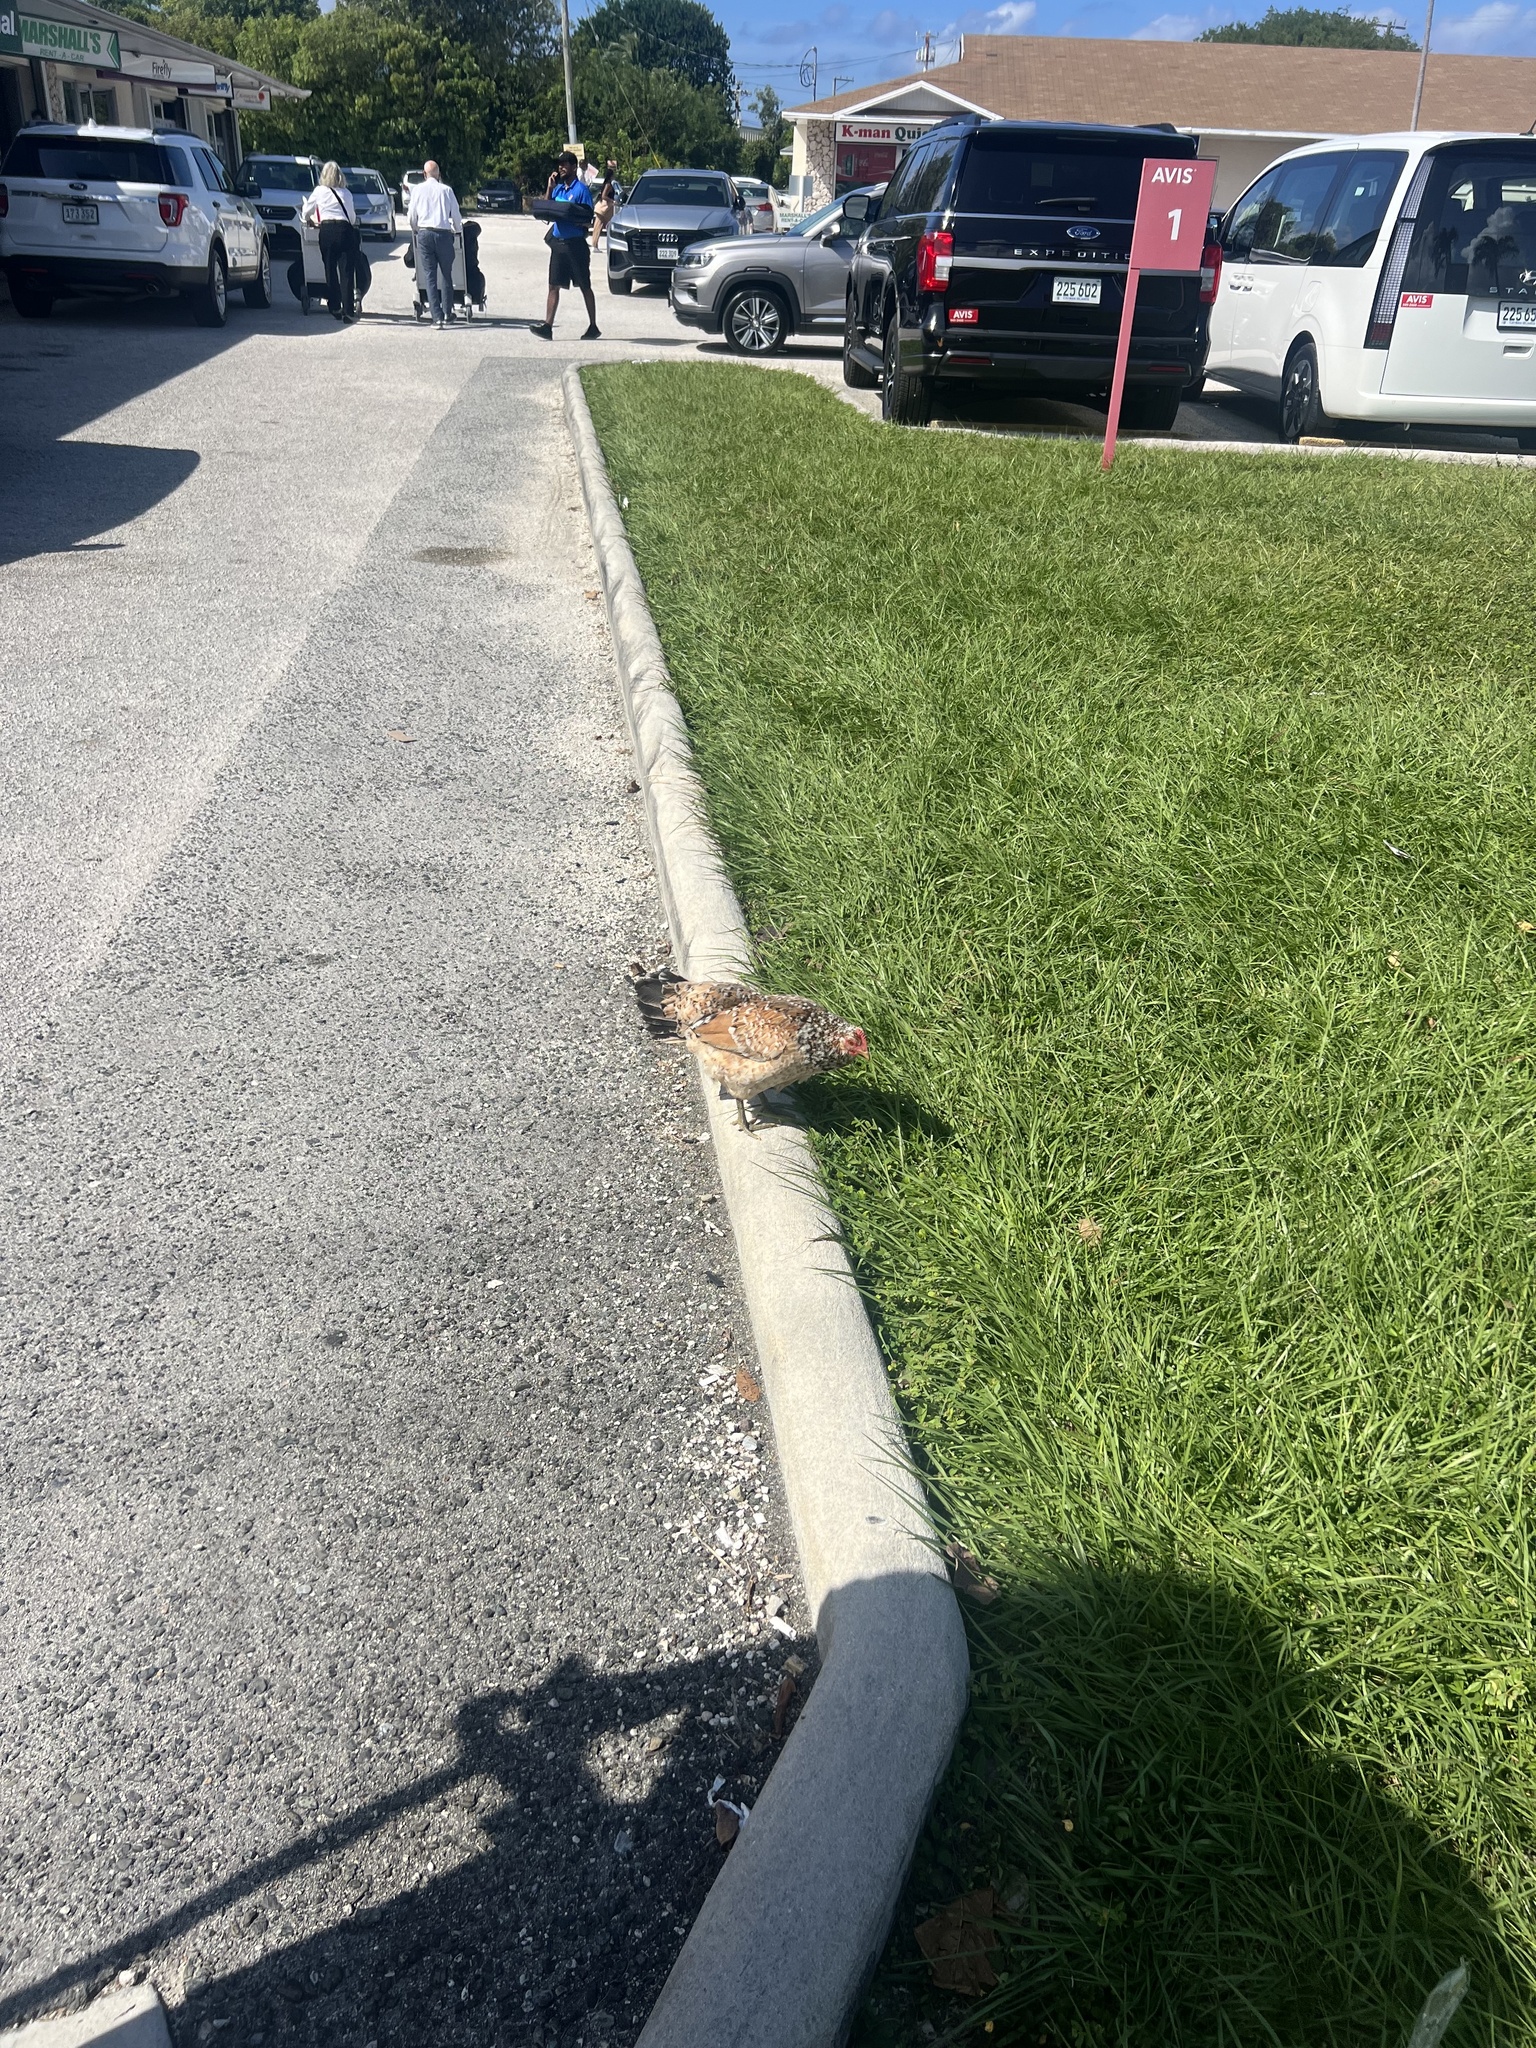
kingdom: Animalia
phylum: Chordata
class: Aves
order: Galliformes
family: Phasianidae
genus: Gallus
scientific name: Gallus gallus
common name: Red junglefowl
